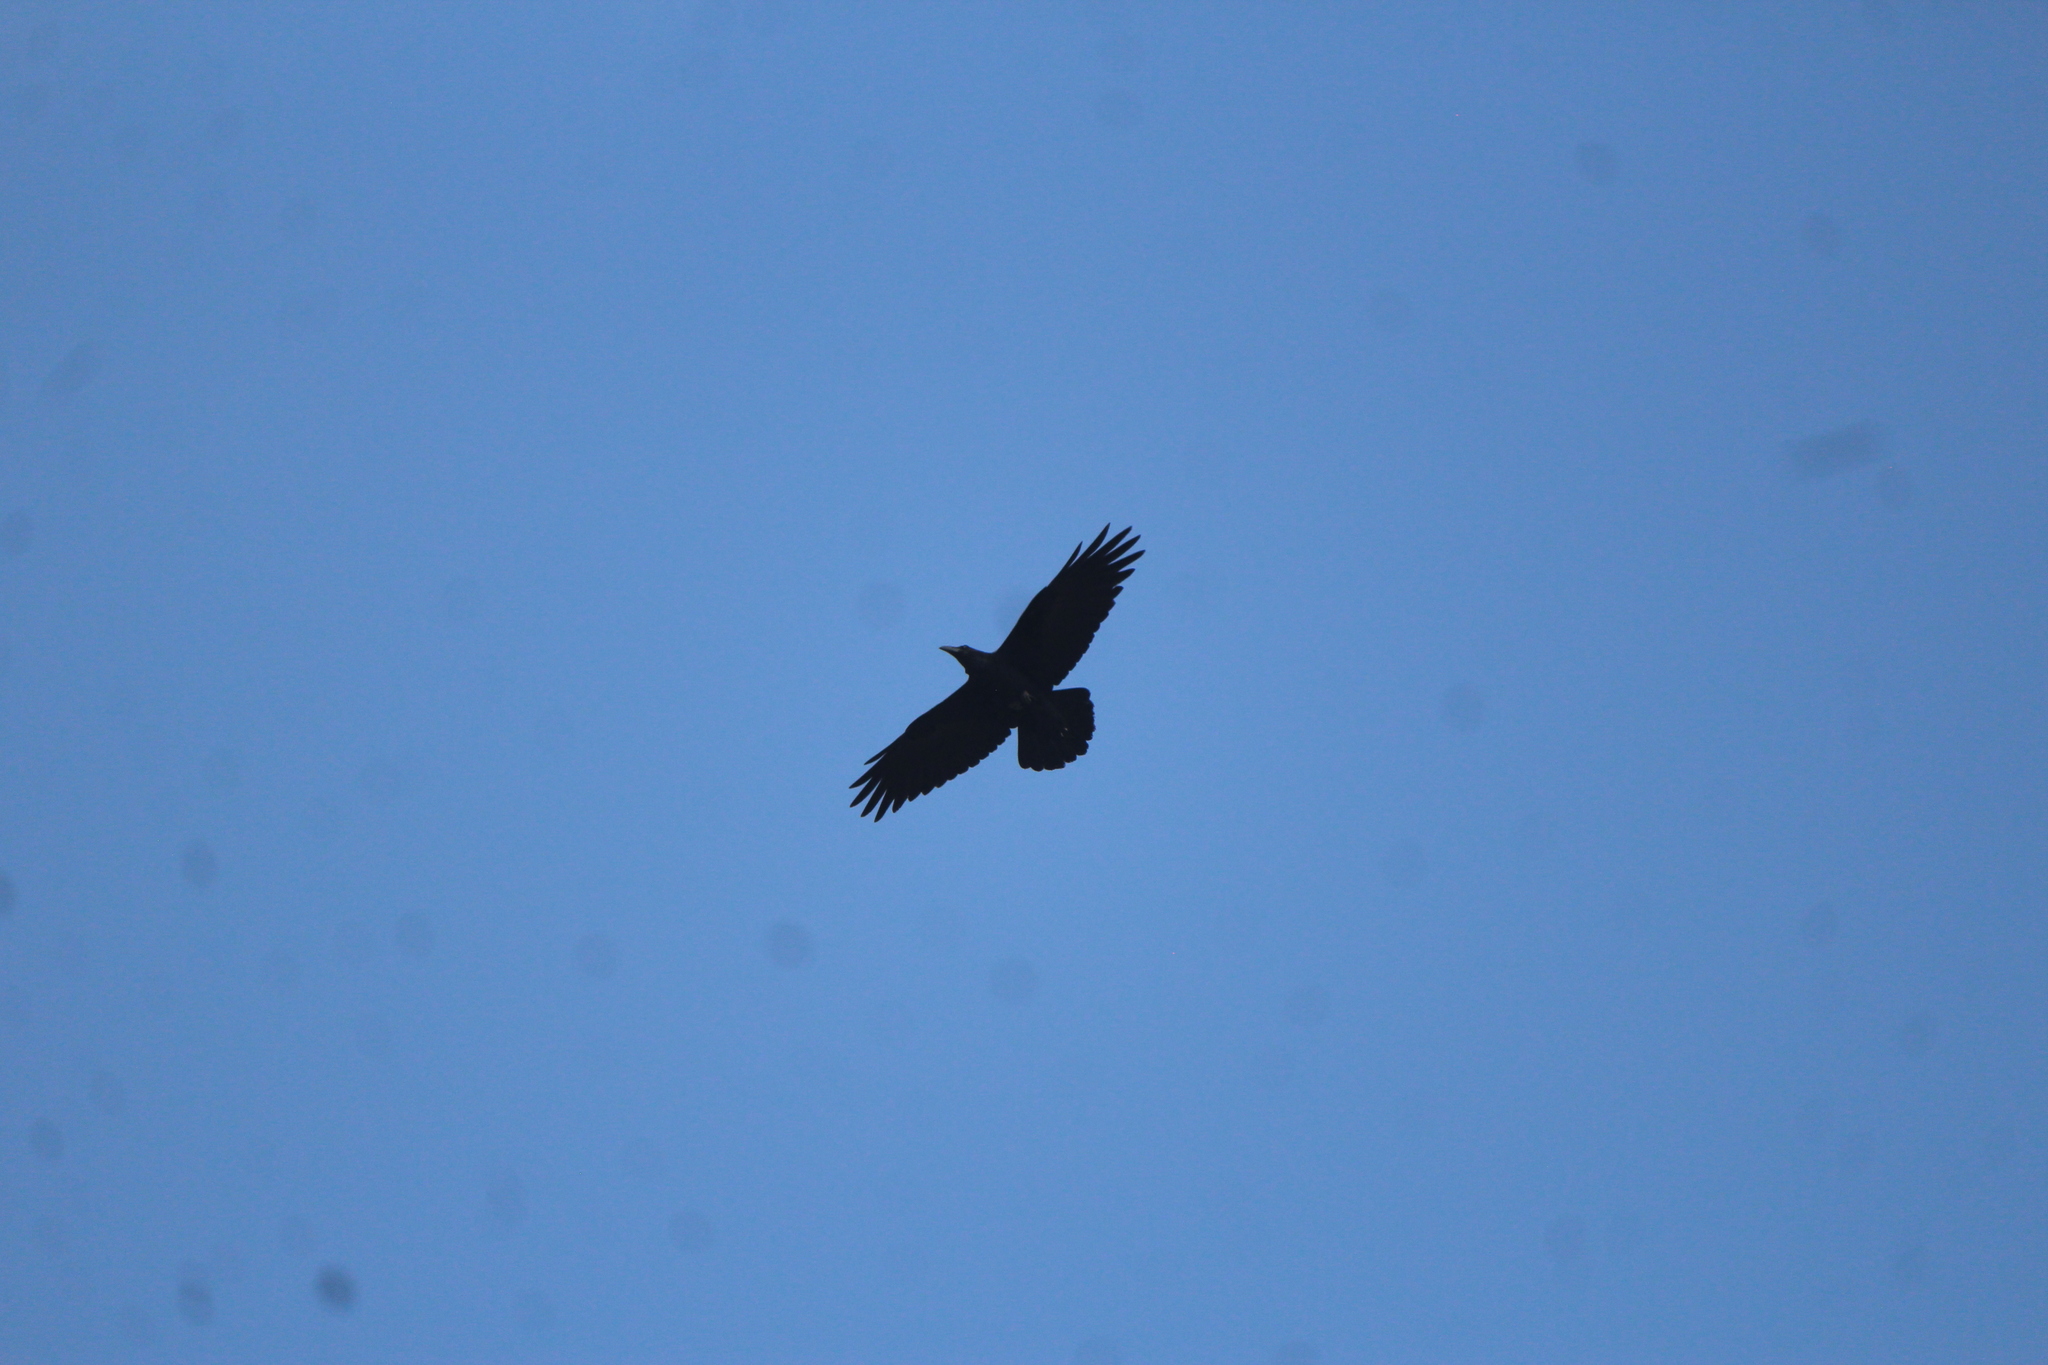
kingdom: Animalia
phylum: Chordata
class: Aves
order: Passeriformes
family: Corvidae
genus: Corvus
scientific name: Corvus corax
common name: Common raven
